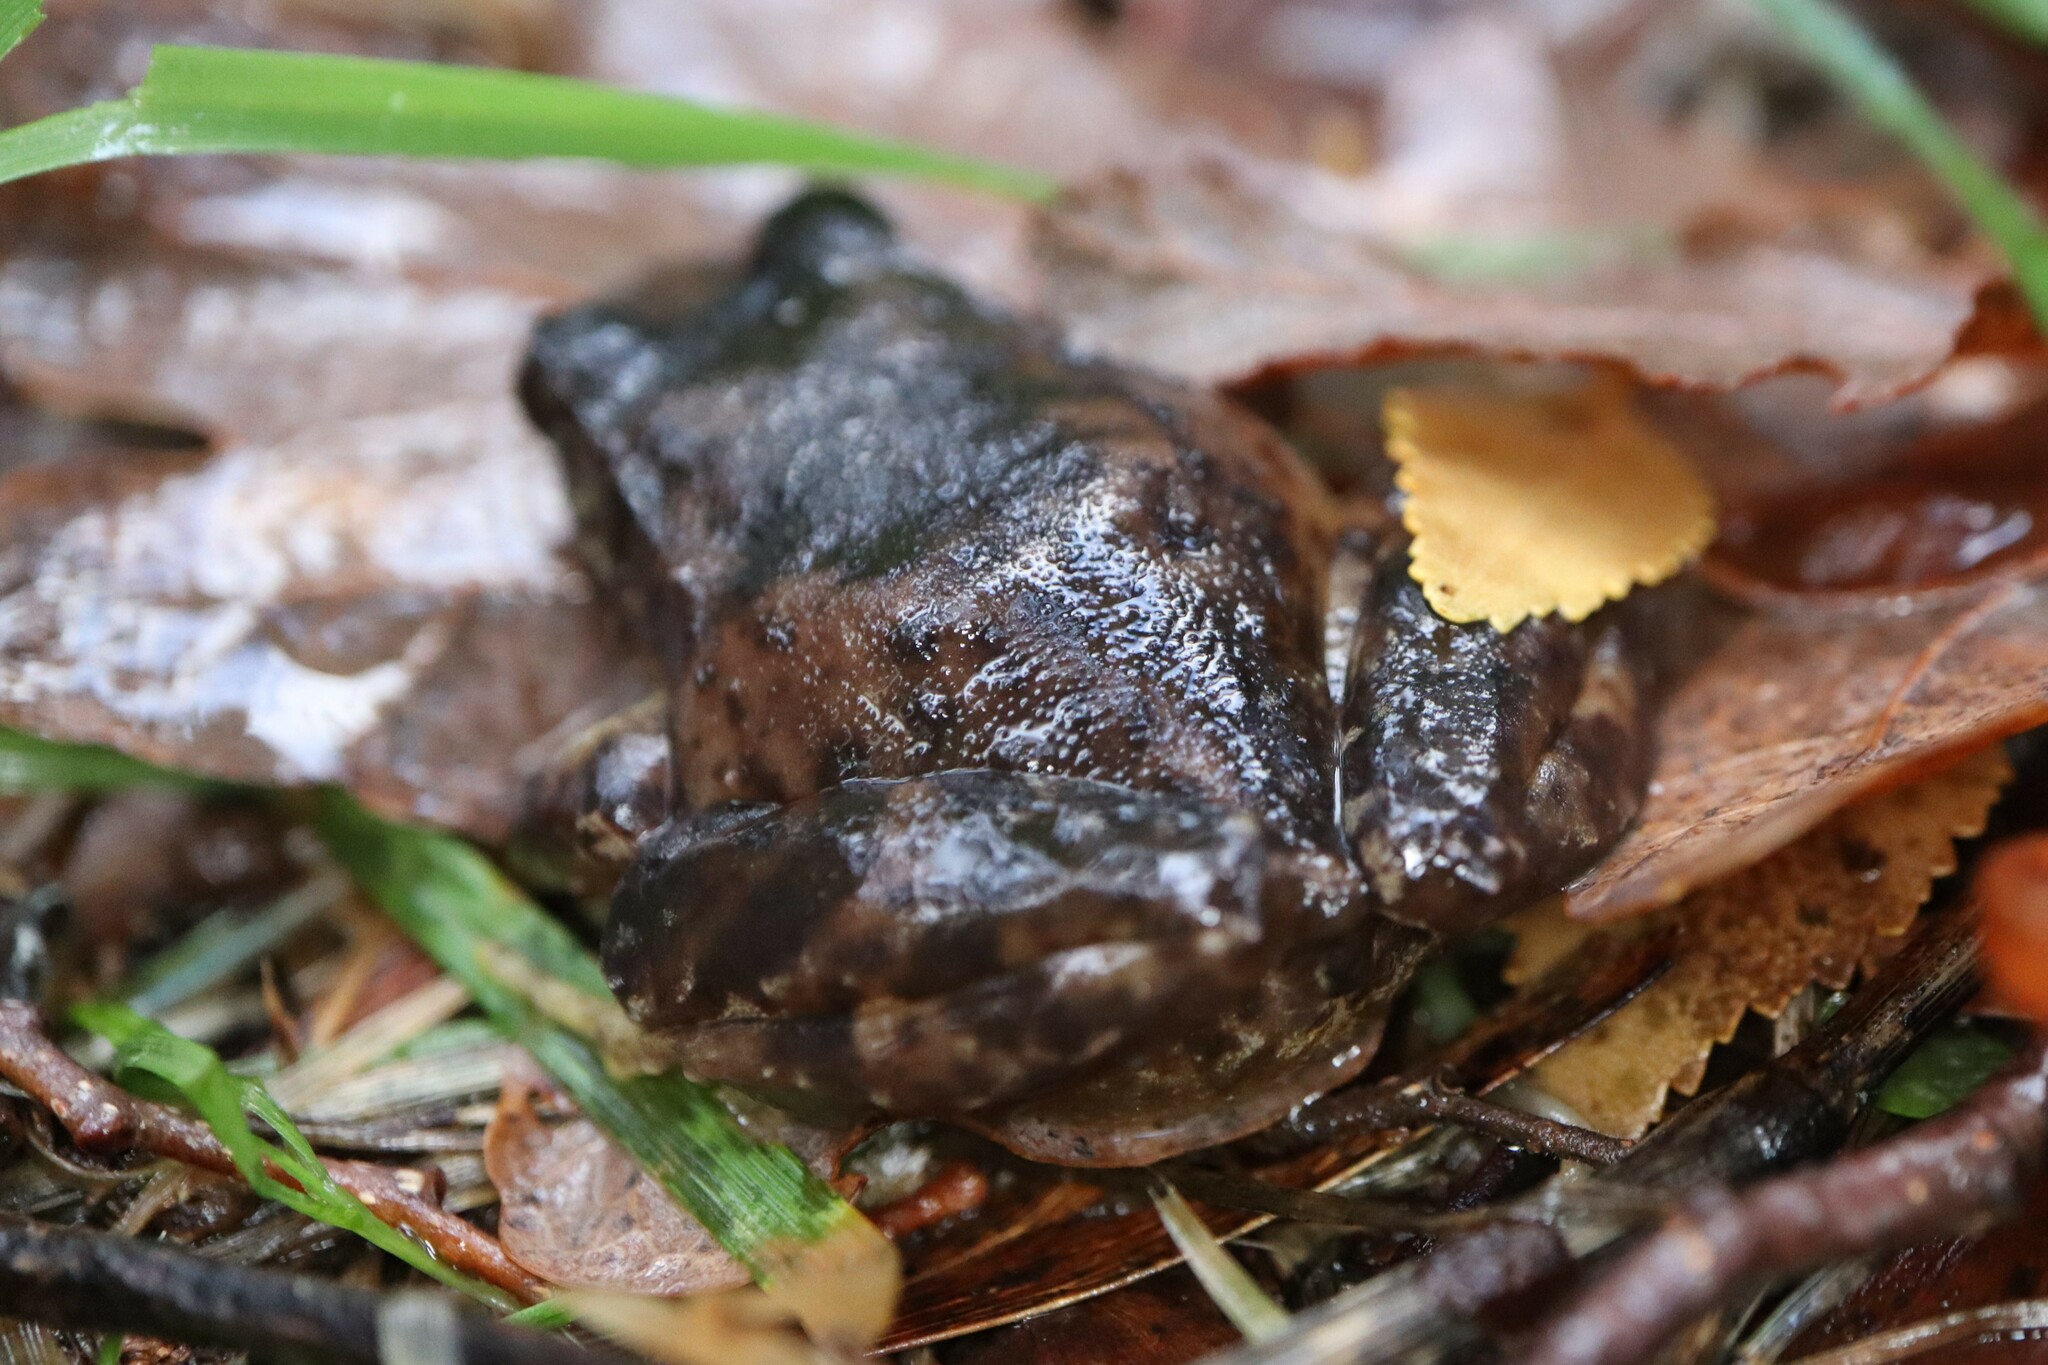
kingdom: Animalia
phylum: Chordata
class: Amphibia
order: Anura
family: Alsodidae
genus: Eupsophus
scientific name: Eupsophus roseus
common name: Rosy ground frog
